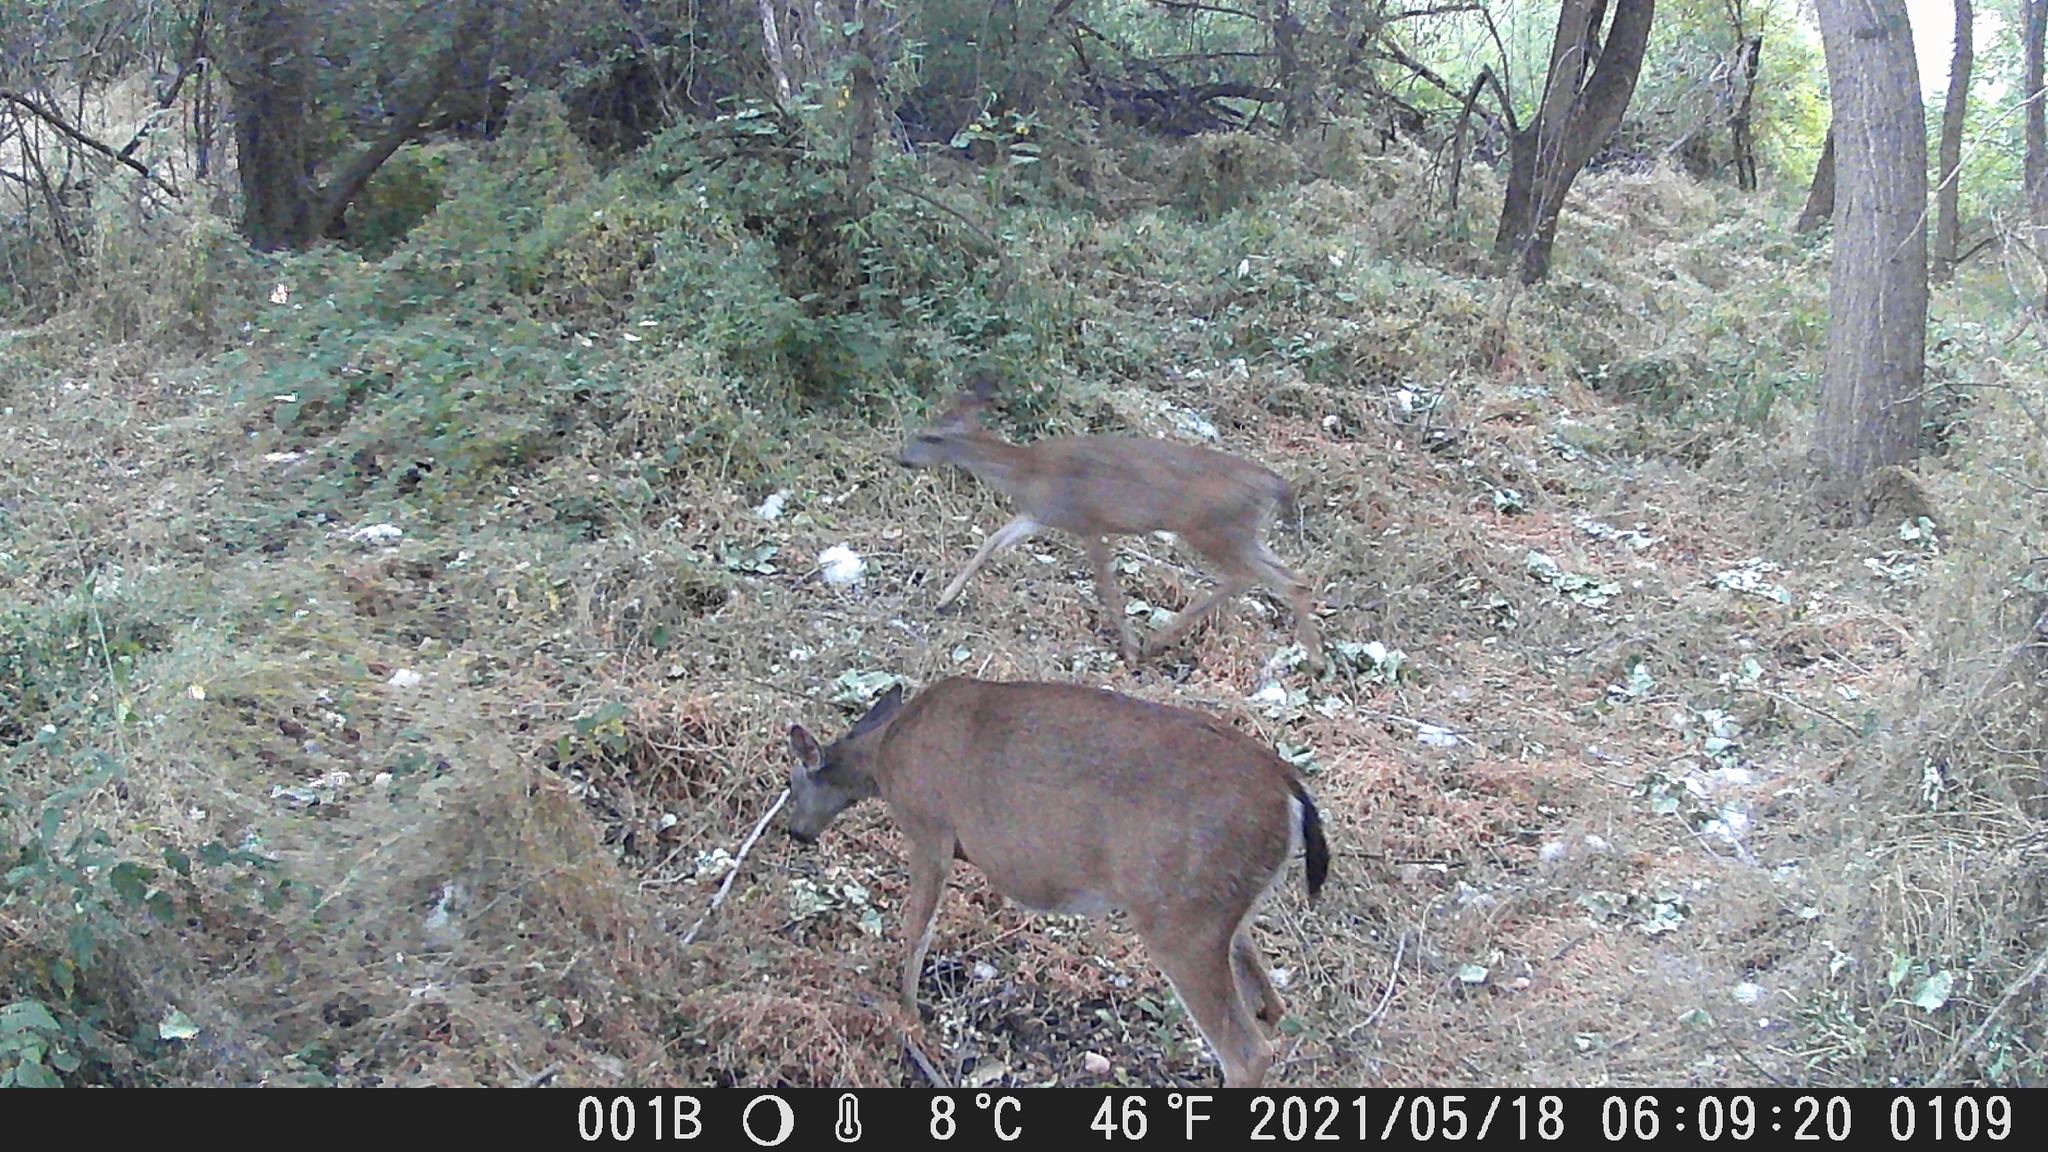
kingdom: Animalia
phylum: Chordata
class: Mammalia
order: Artiodactyla
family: Cervidae
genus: Odocoileus
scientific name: Odocoileus hemionus
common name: Mule deer
